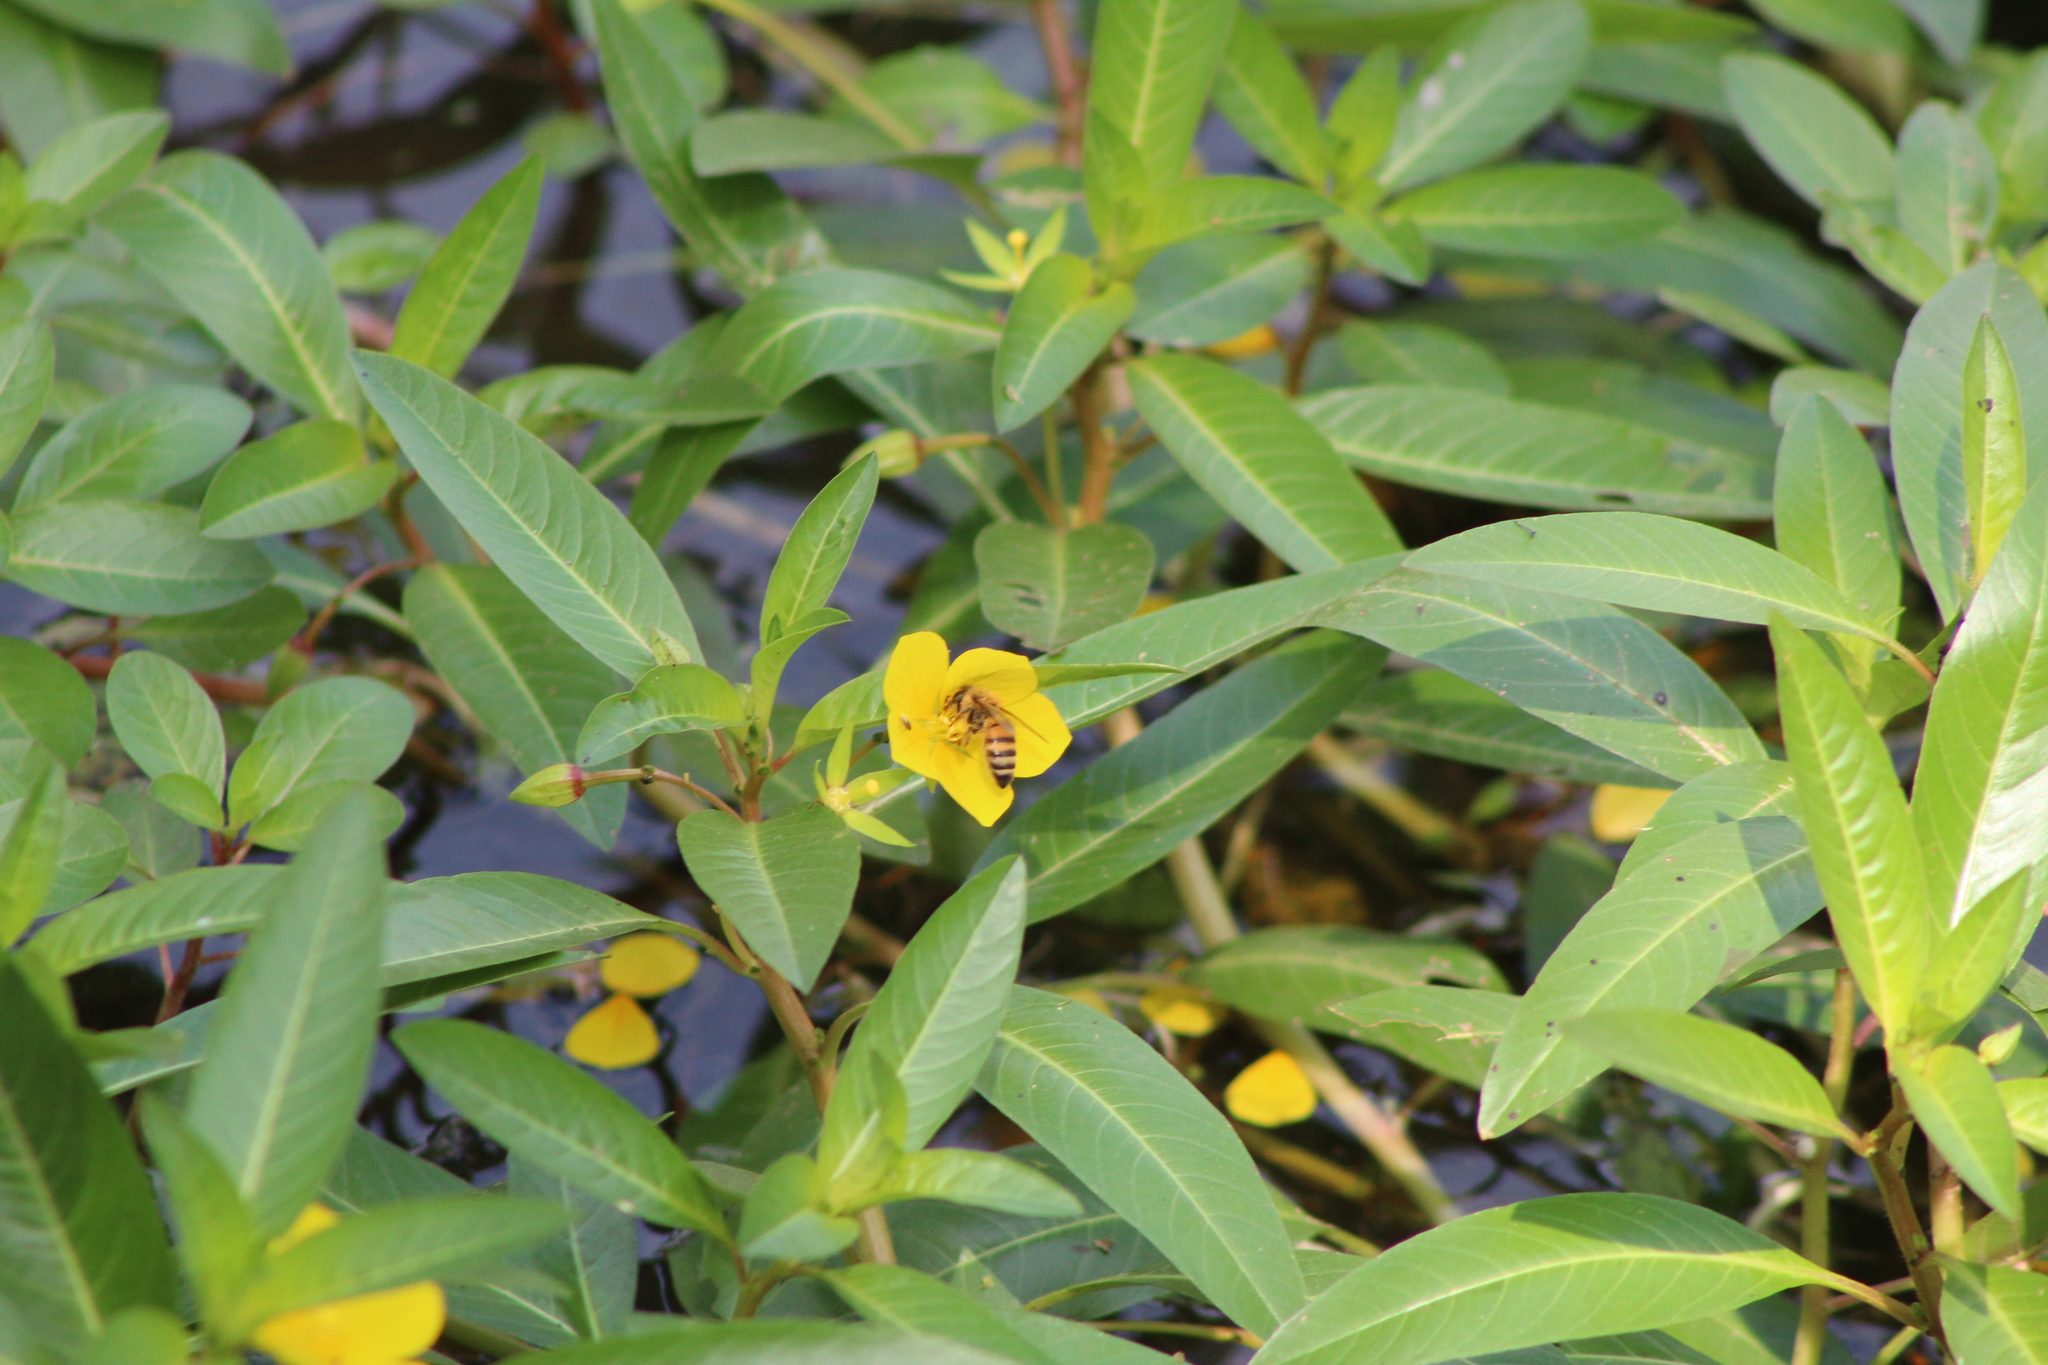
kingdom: Animalia
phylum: Arthropoda
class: Insecta
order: Hymenoptera
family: Apidae
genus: Apis
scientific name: Apis mellifera
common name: Honey bee
